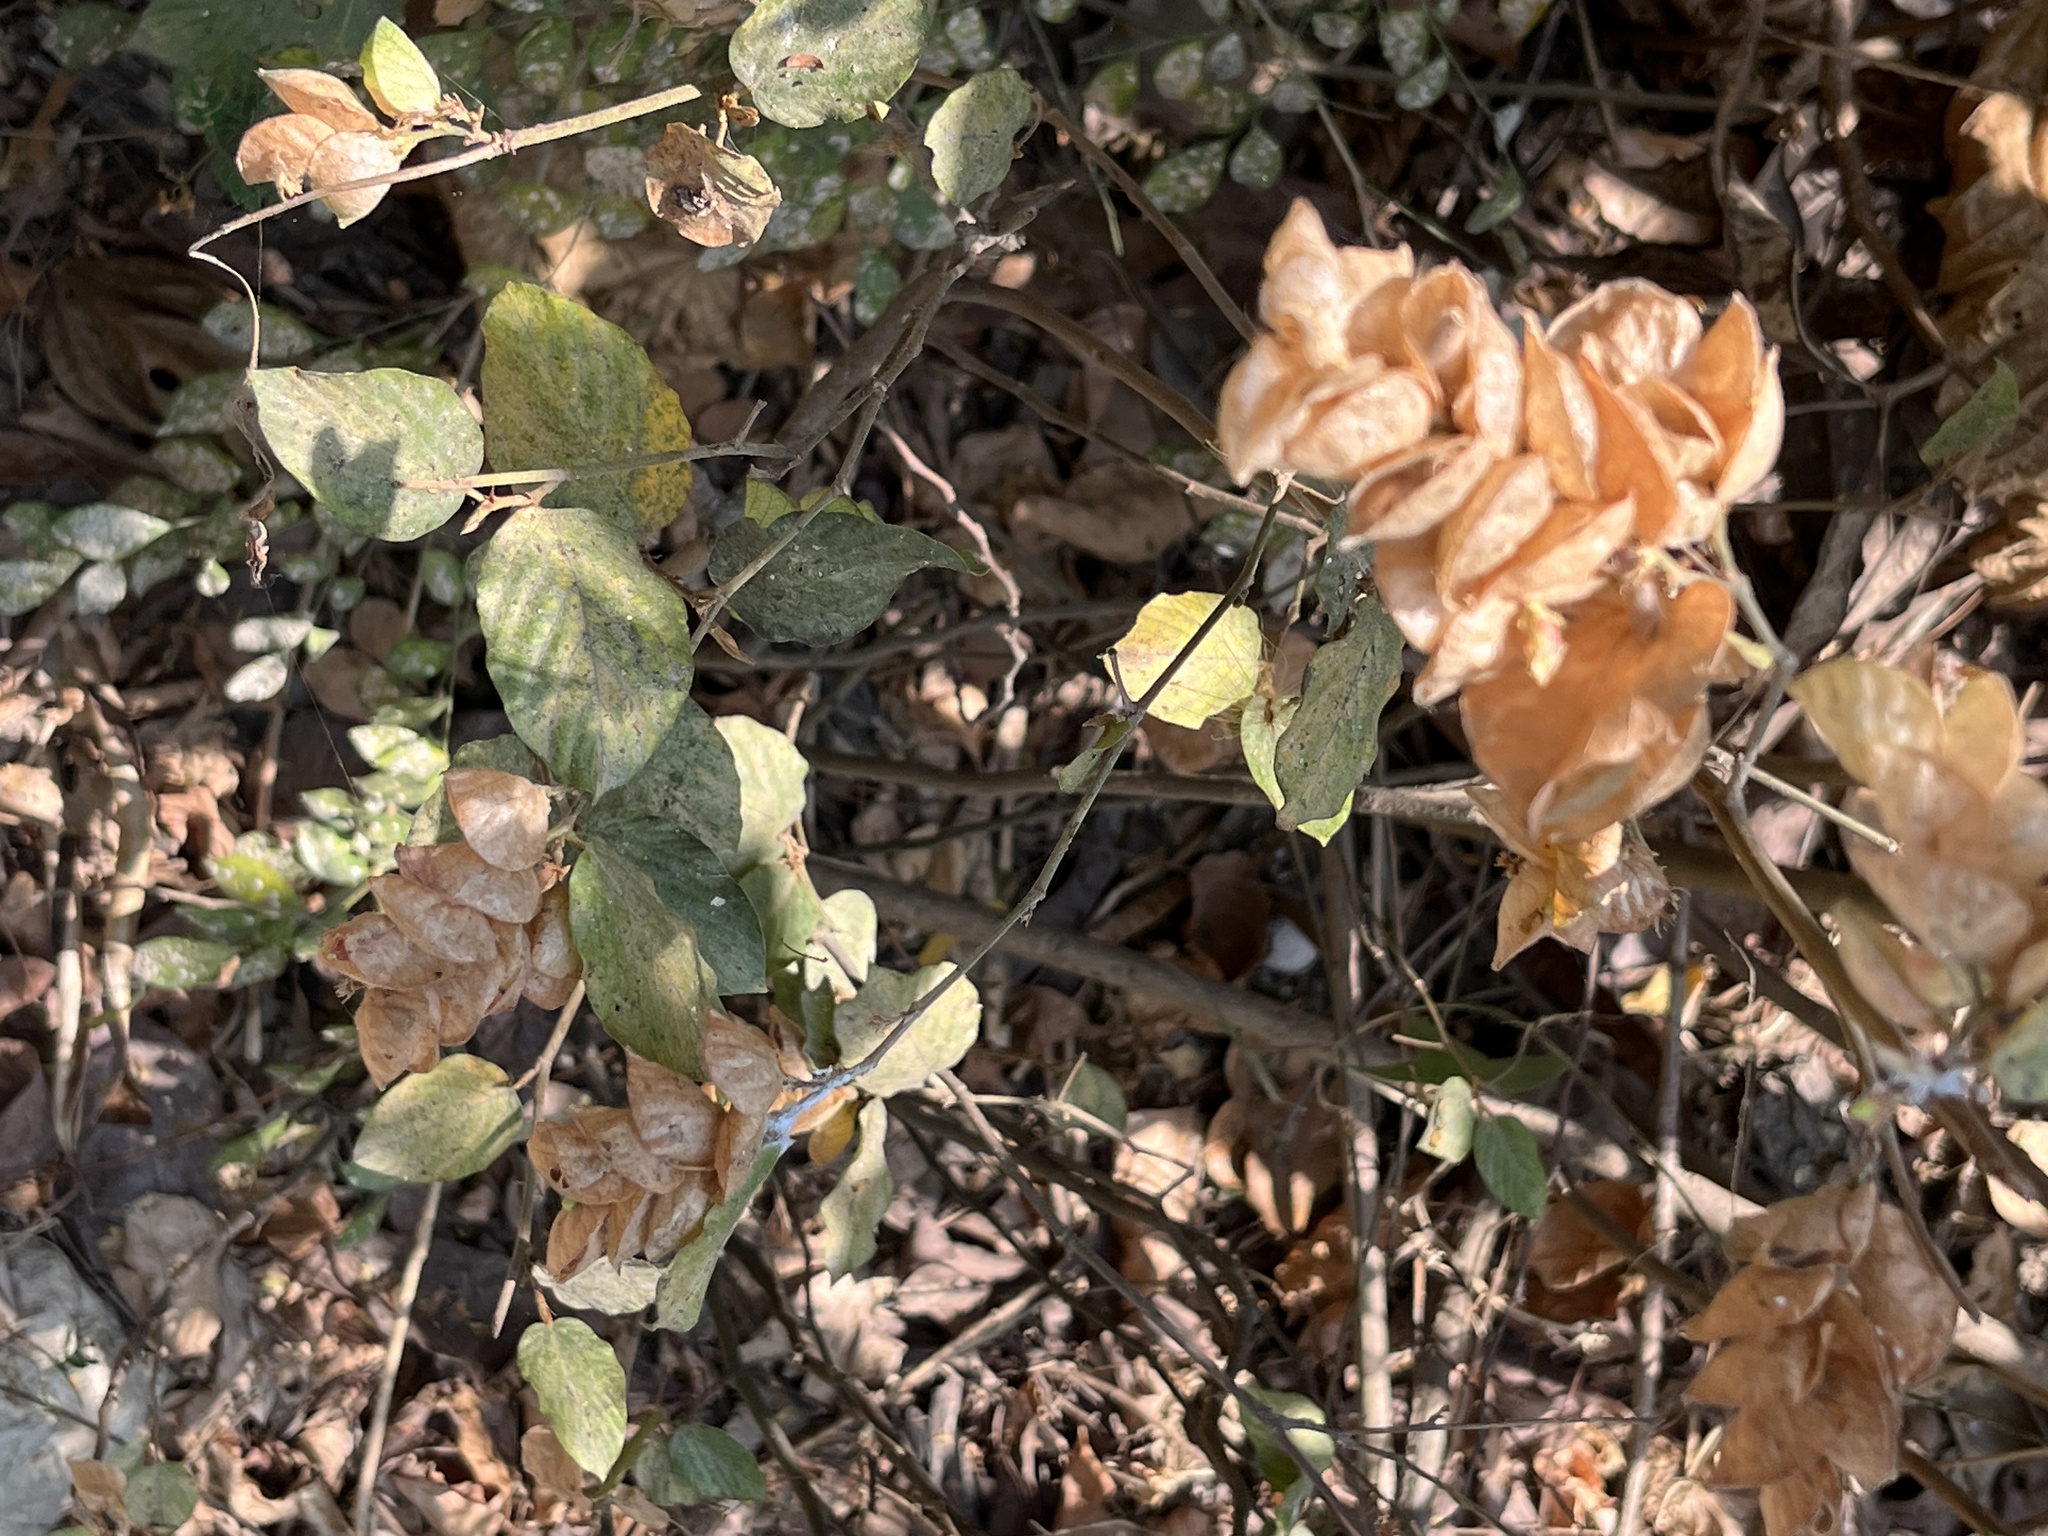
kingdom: Plantae
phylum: Tracheophyta
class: Magnoliopsida
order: Fabales
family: Fabaceae
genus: Flemingia
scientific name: Flemingia strobilifera
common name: Wild hops
